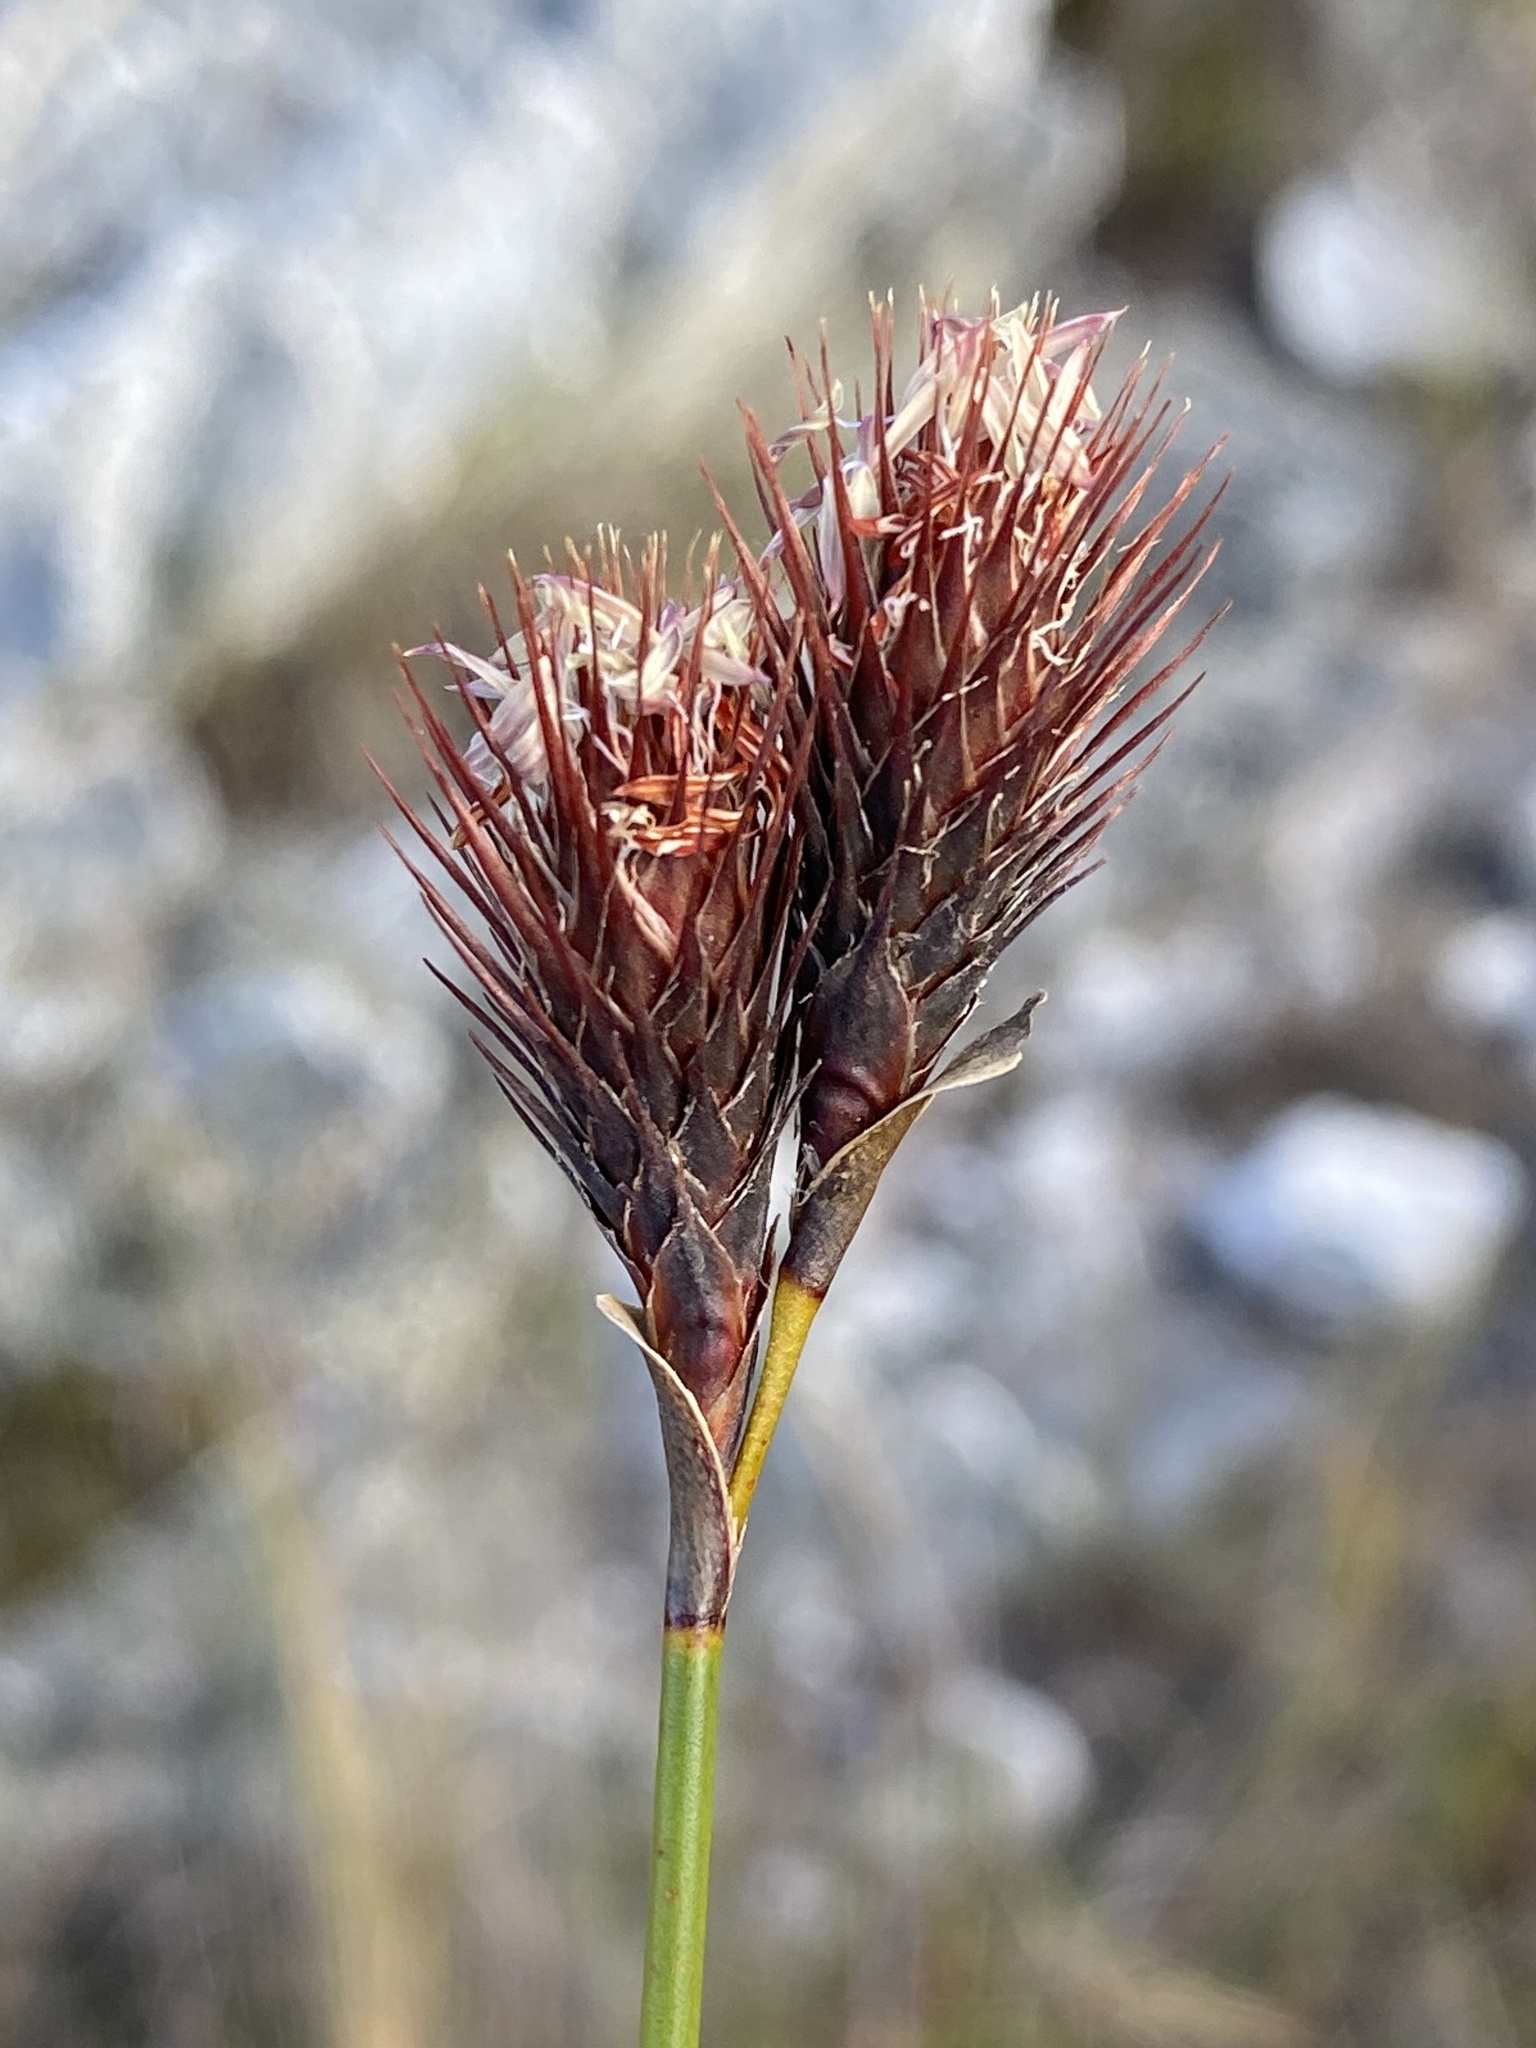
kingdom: Plantae
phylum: Tracheophyta
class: Liliopsida
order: Poales
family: Restionaceae
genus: Hypodiscus
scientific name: Hypodiscus aristatus
